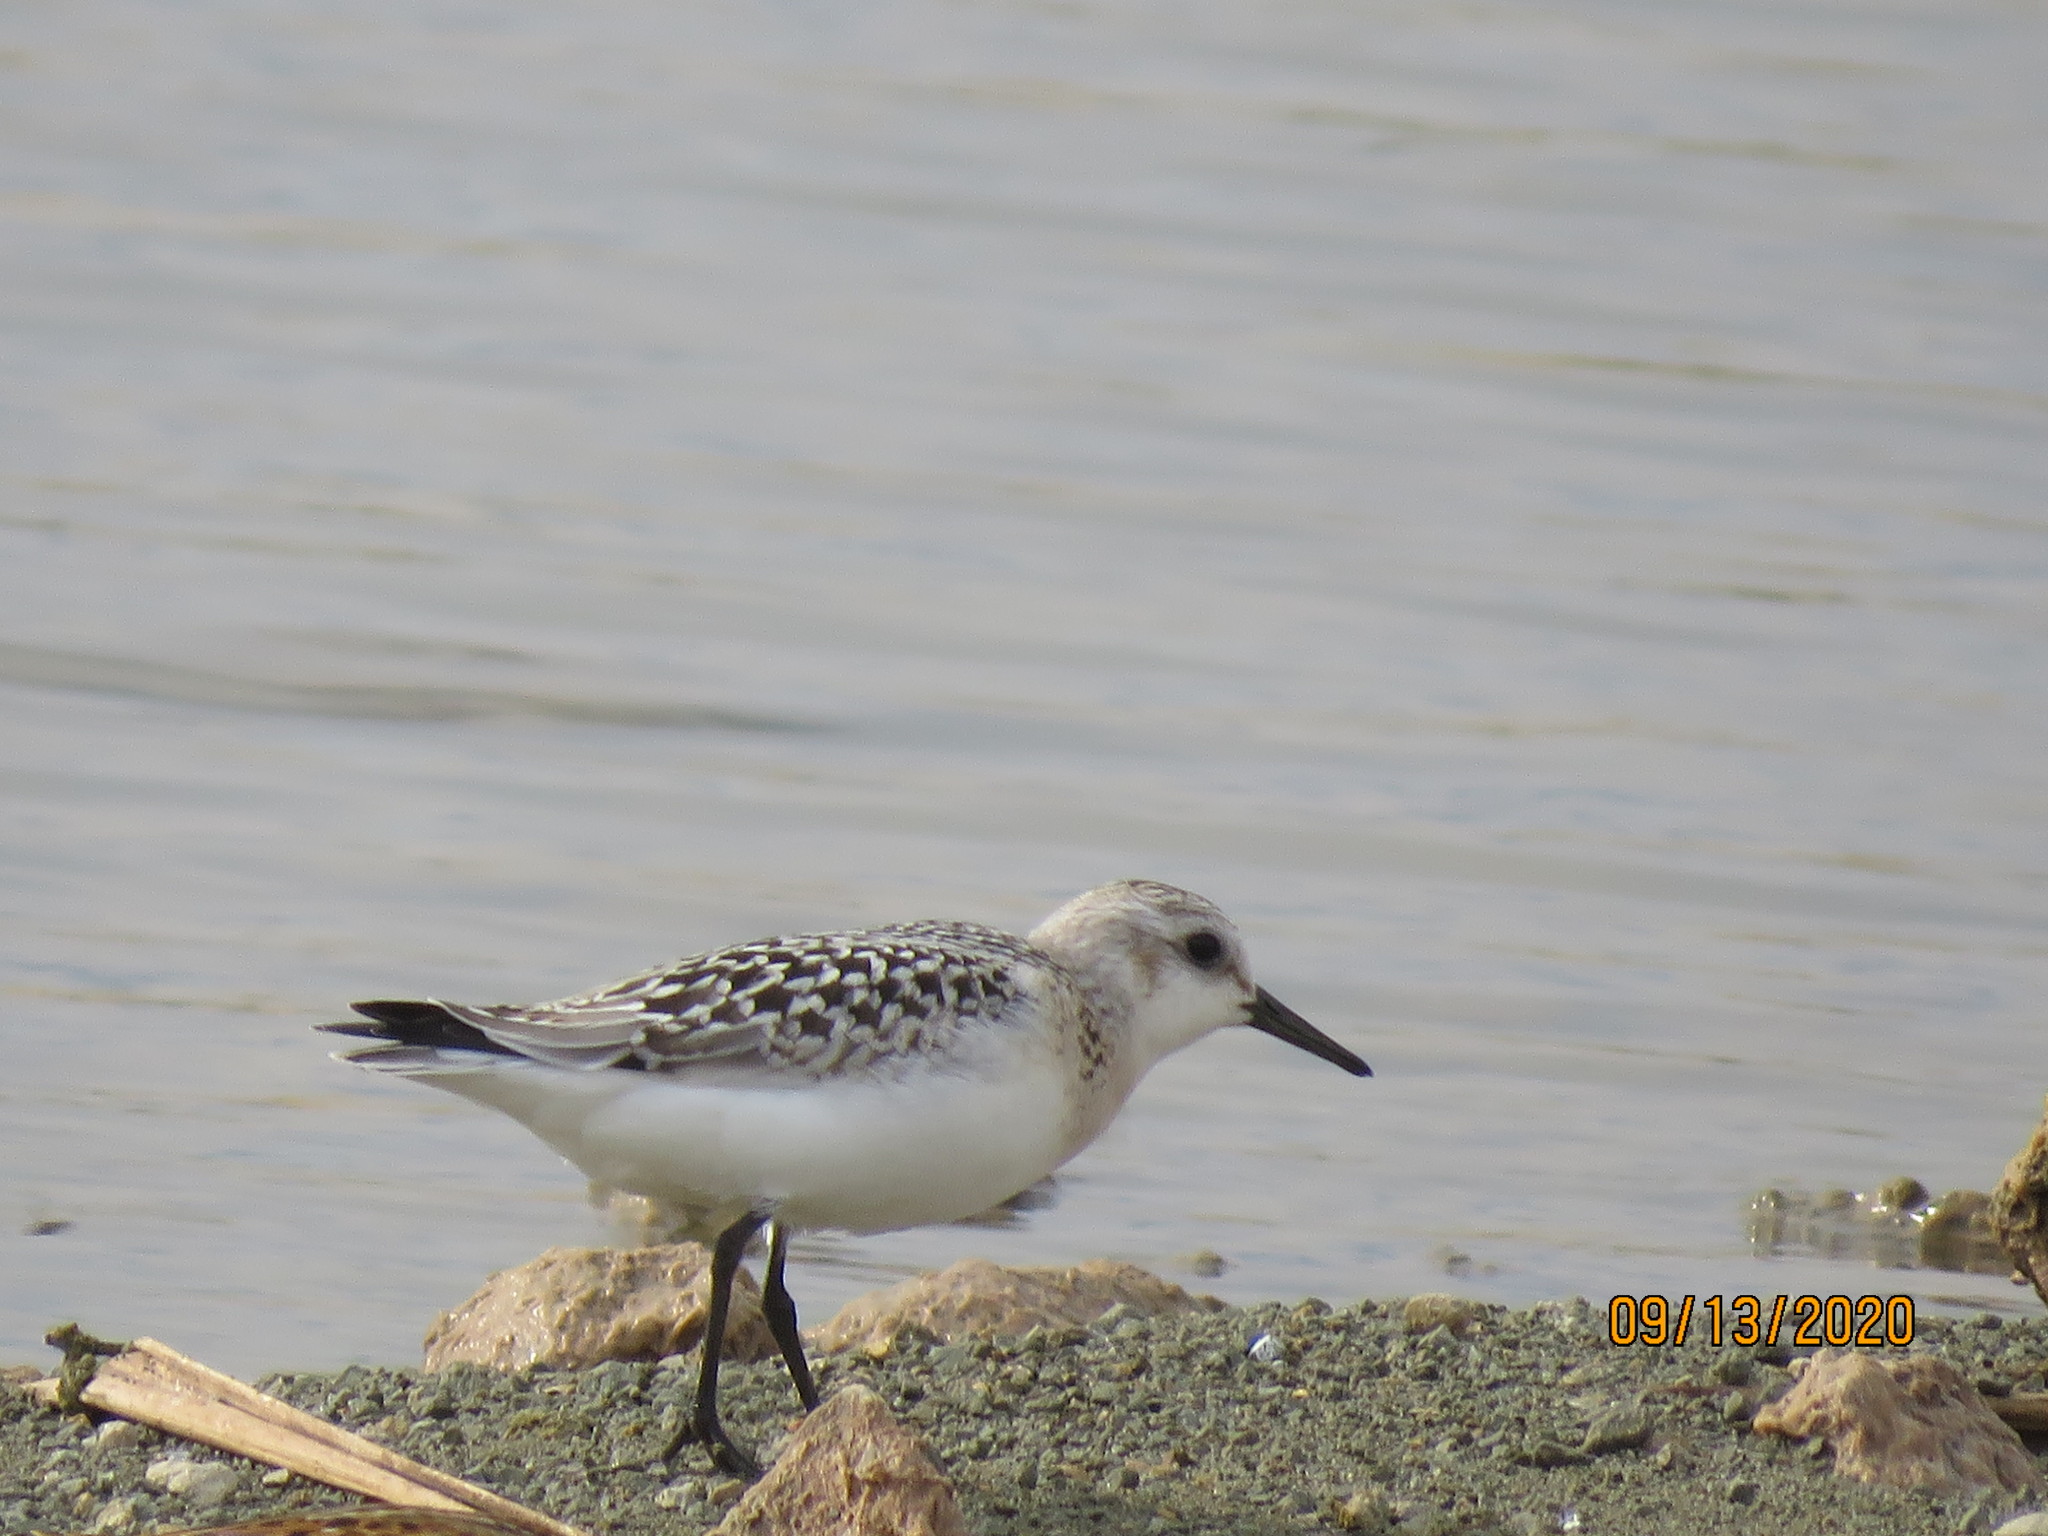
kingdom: Animalia
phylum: Chordata
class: Aves
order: Charadriiformes
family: Scolopacidae
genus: Calidris
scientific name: Calidris alba
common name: Sanderling
